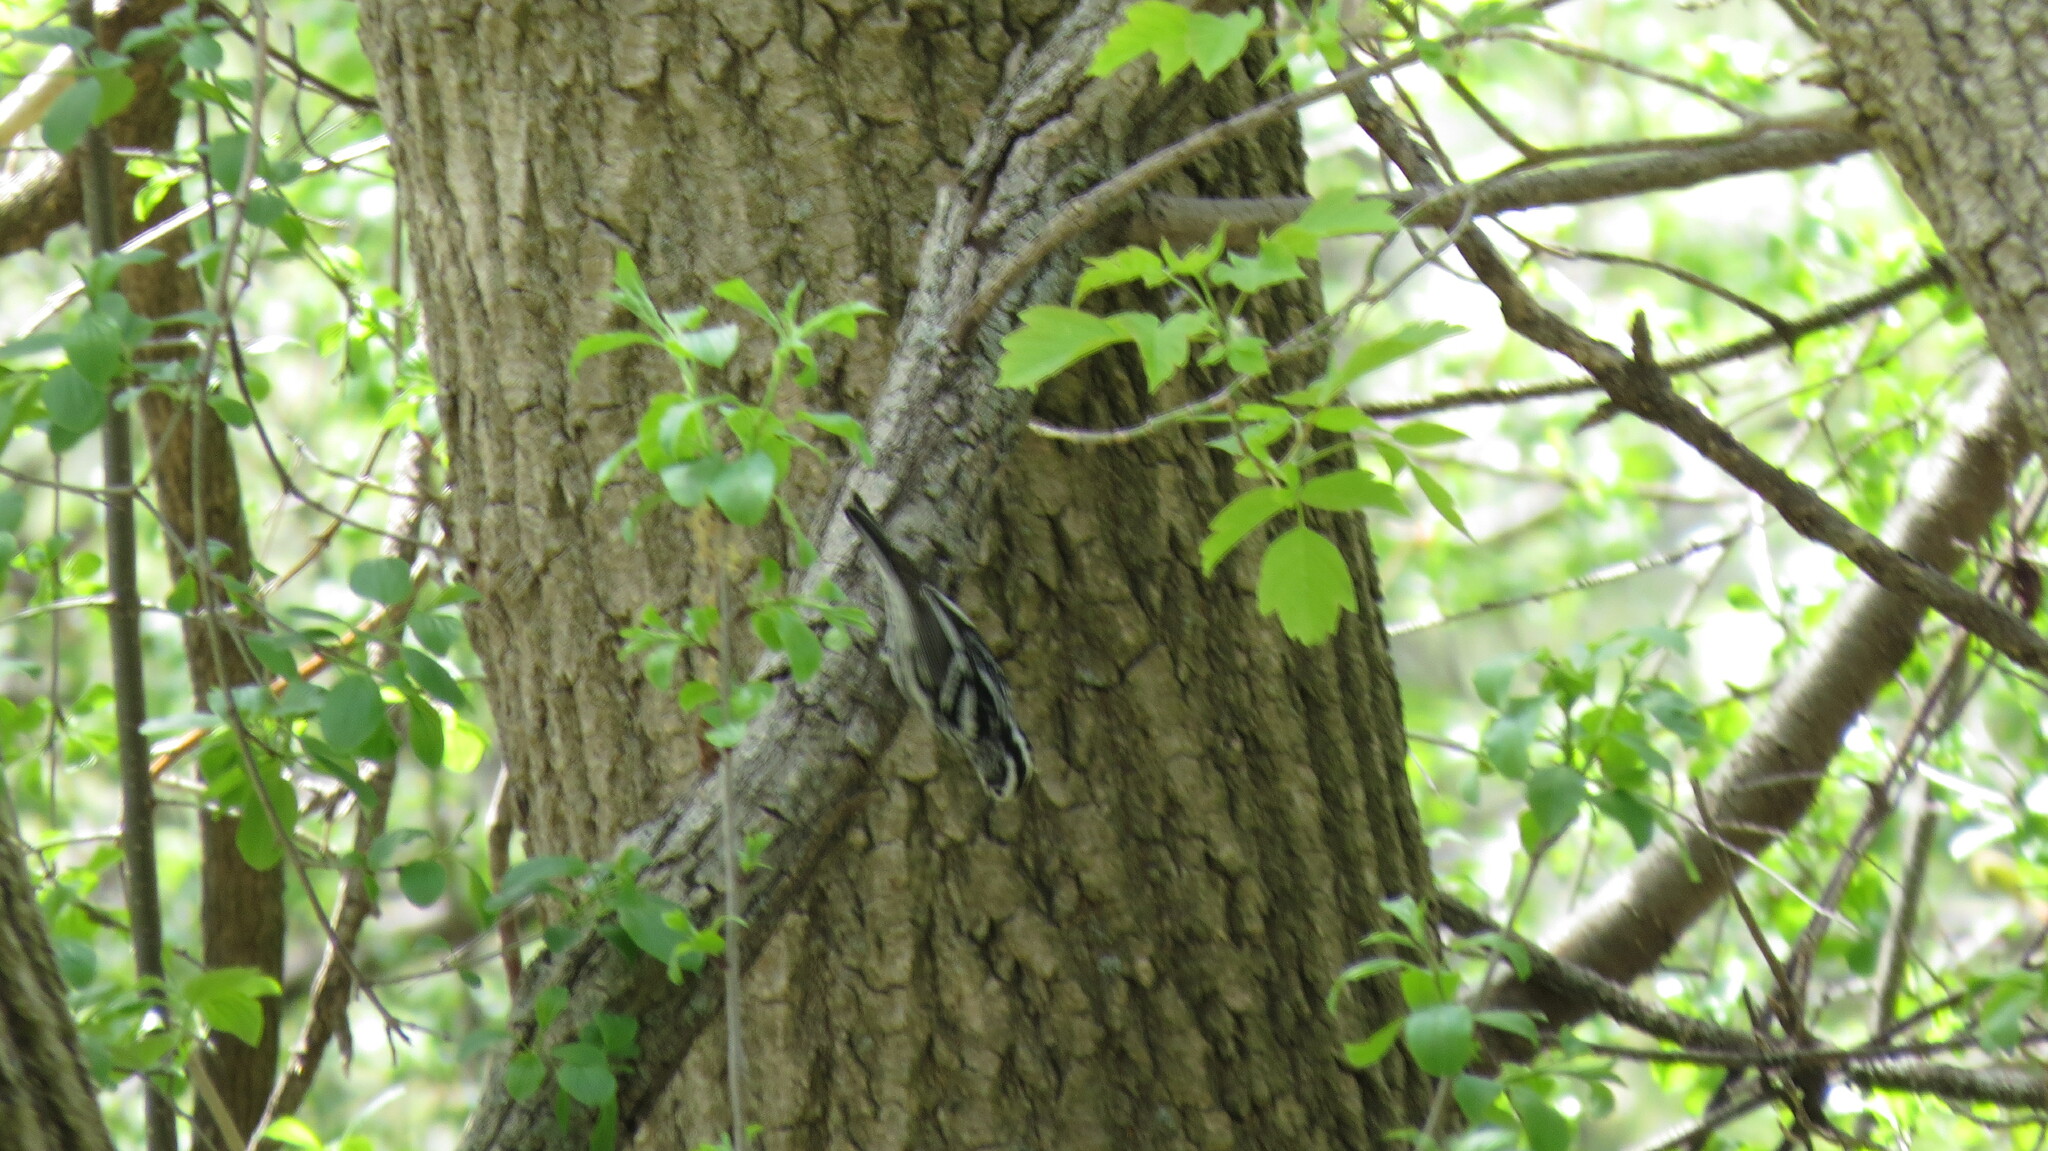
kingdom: Animalia
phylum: Chordata
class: Aves
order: Passeriformes
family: Parulidae
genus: Mniotilta
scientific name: Mniotilta varia
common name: Black-and-white warbler
